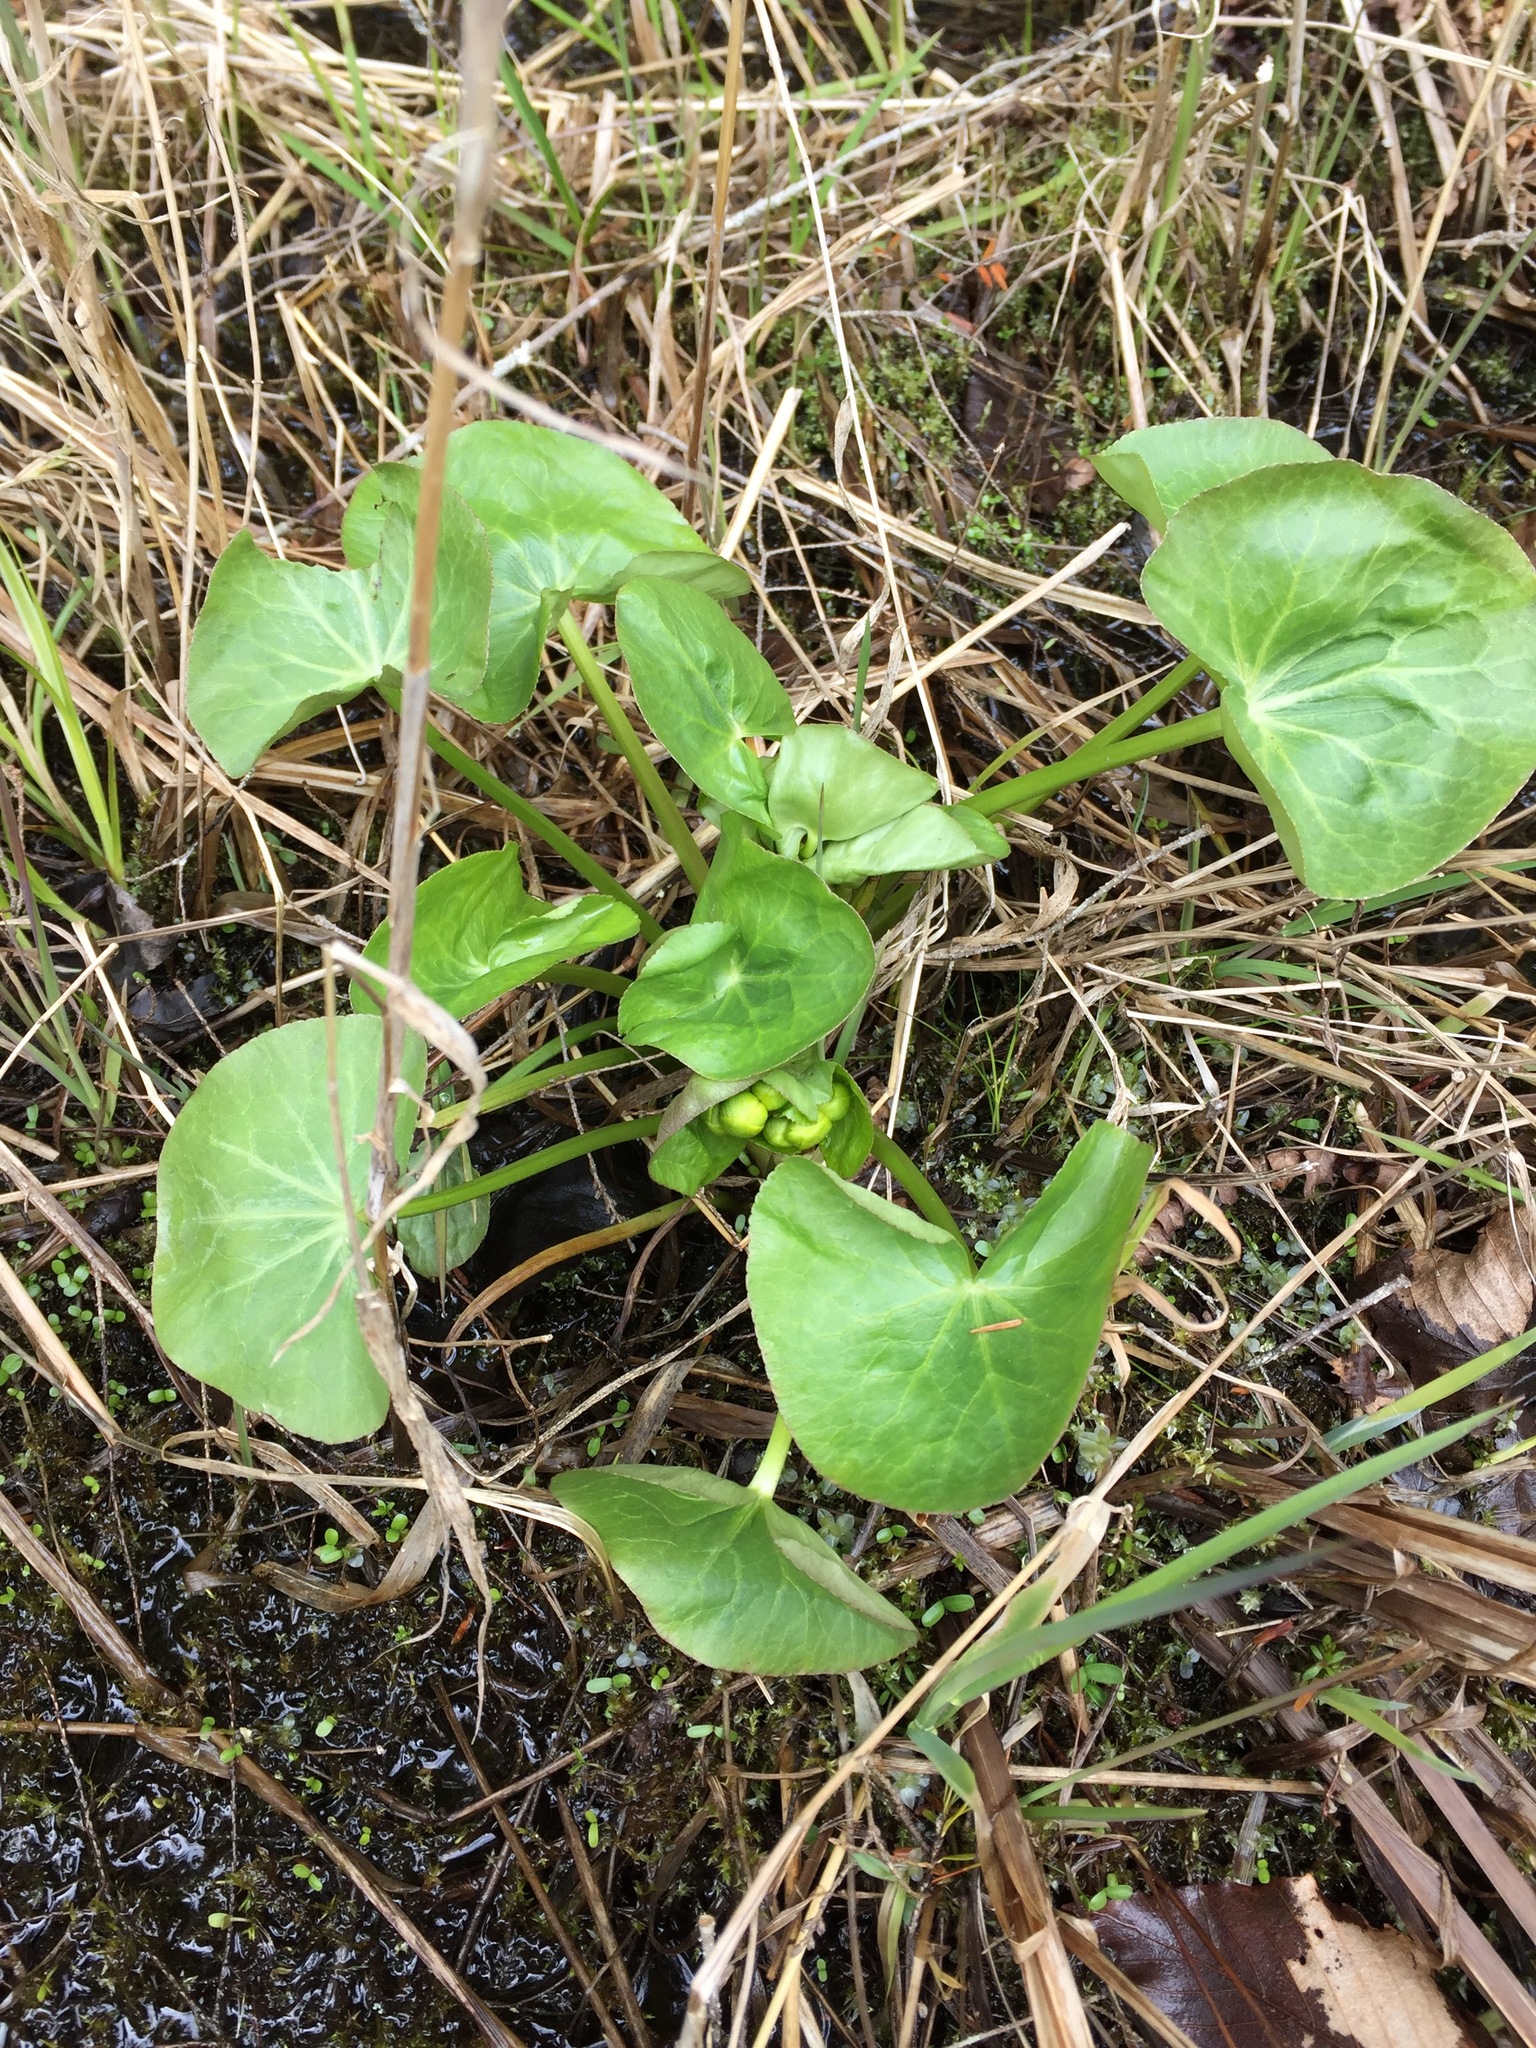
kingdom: Plantae
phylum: Tracheophyta
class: Magnoliopsida
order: Ranunculales
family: Ranunculaceae
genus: Caltha
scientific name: Caltha palustris
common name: Marsh marigold
